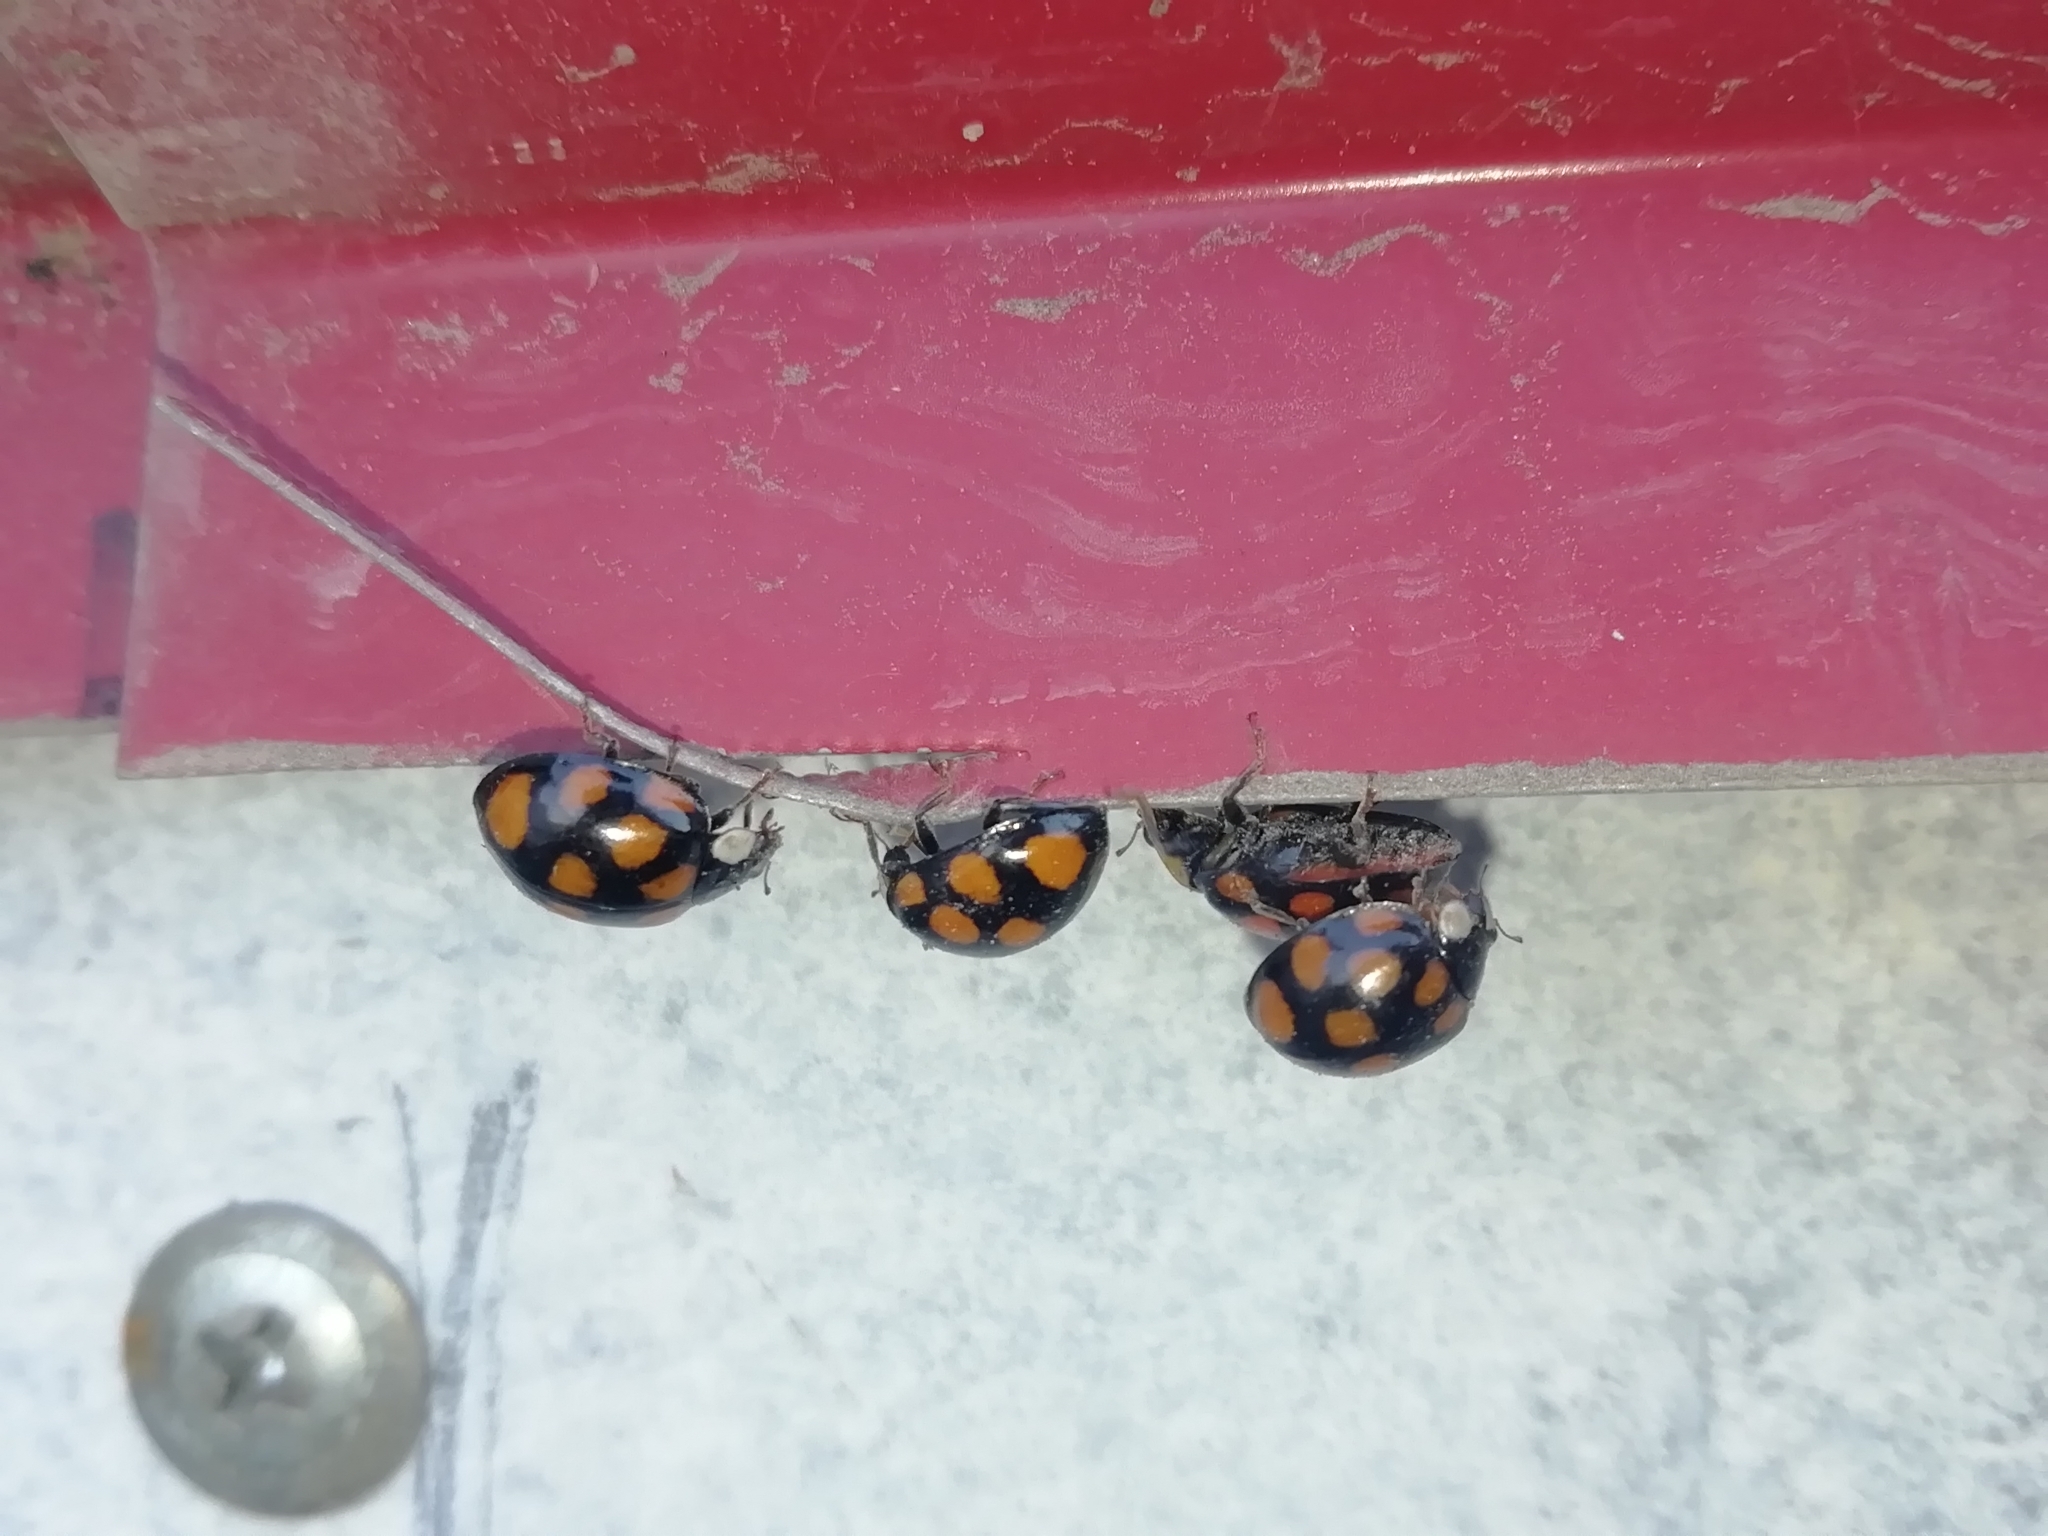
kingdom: Animalia
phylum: Arthropoda
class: Insecta
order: Coleoptera
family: Coccinellidae
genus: Harmonia
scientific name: Harmonia axyridis
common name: Harlequin ladybird
